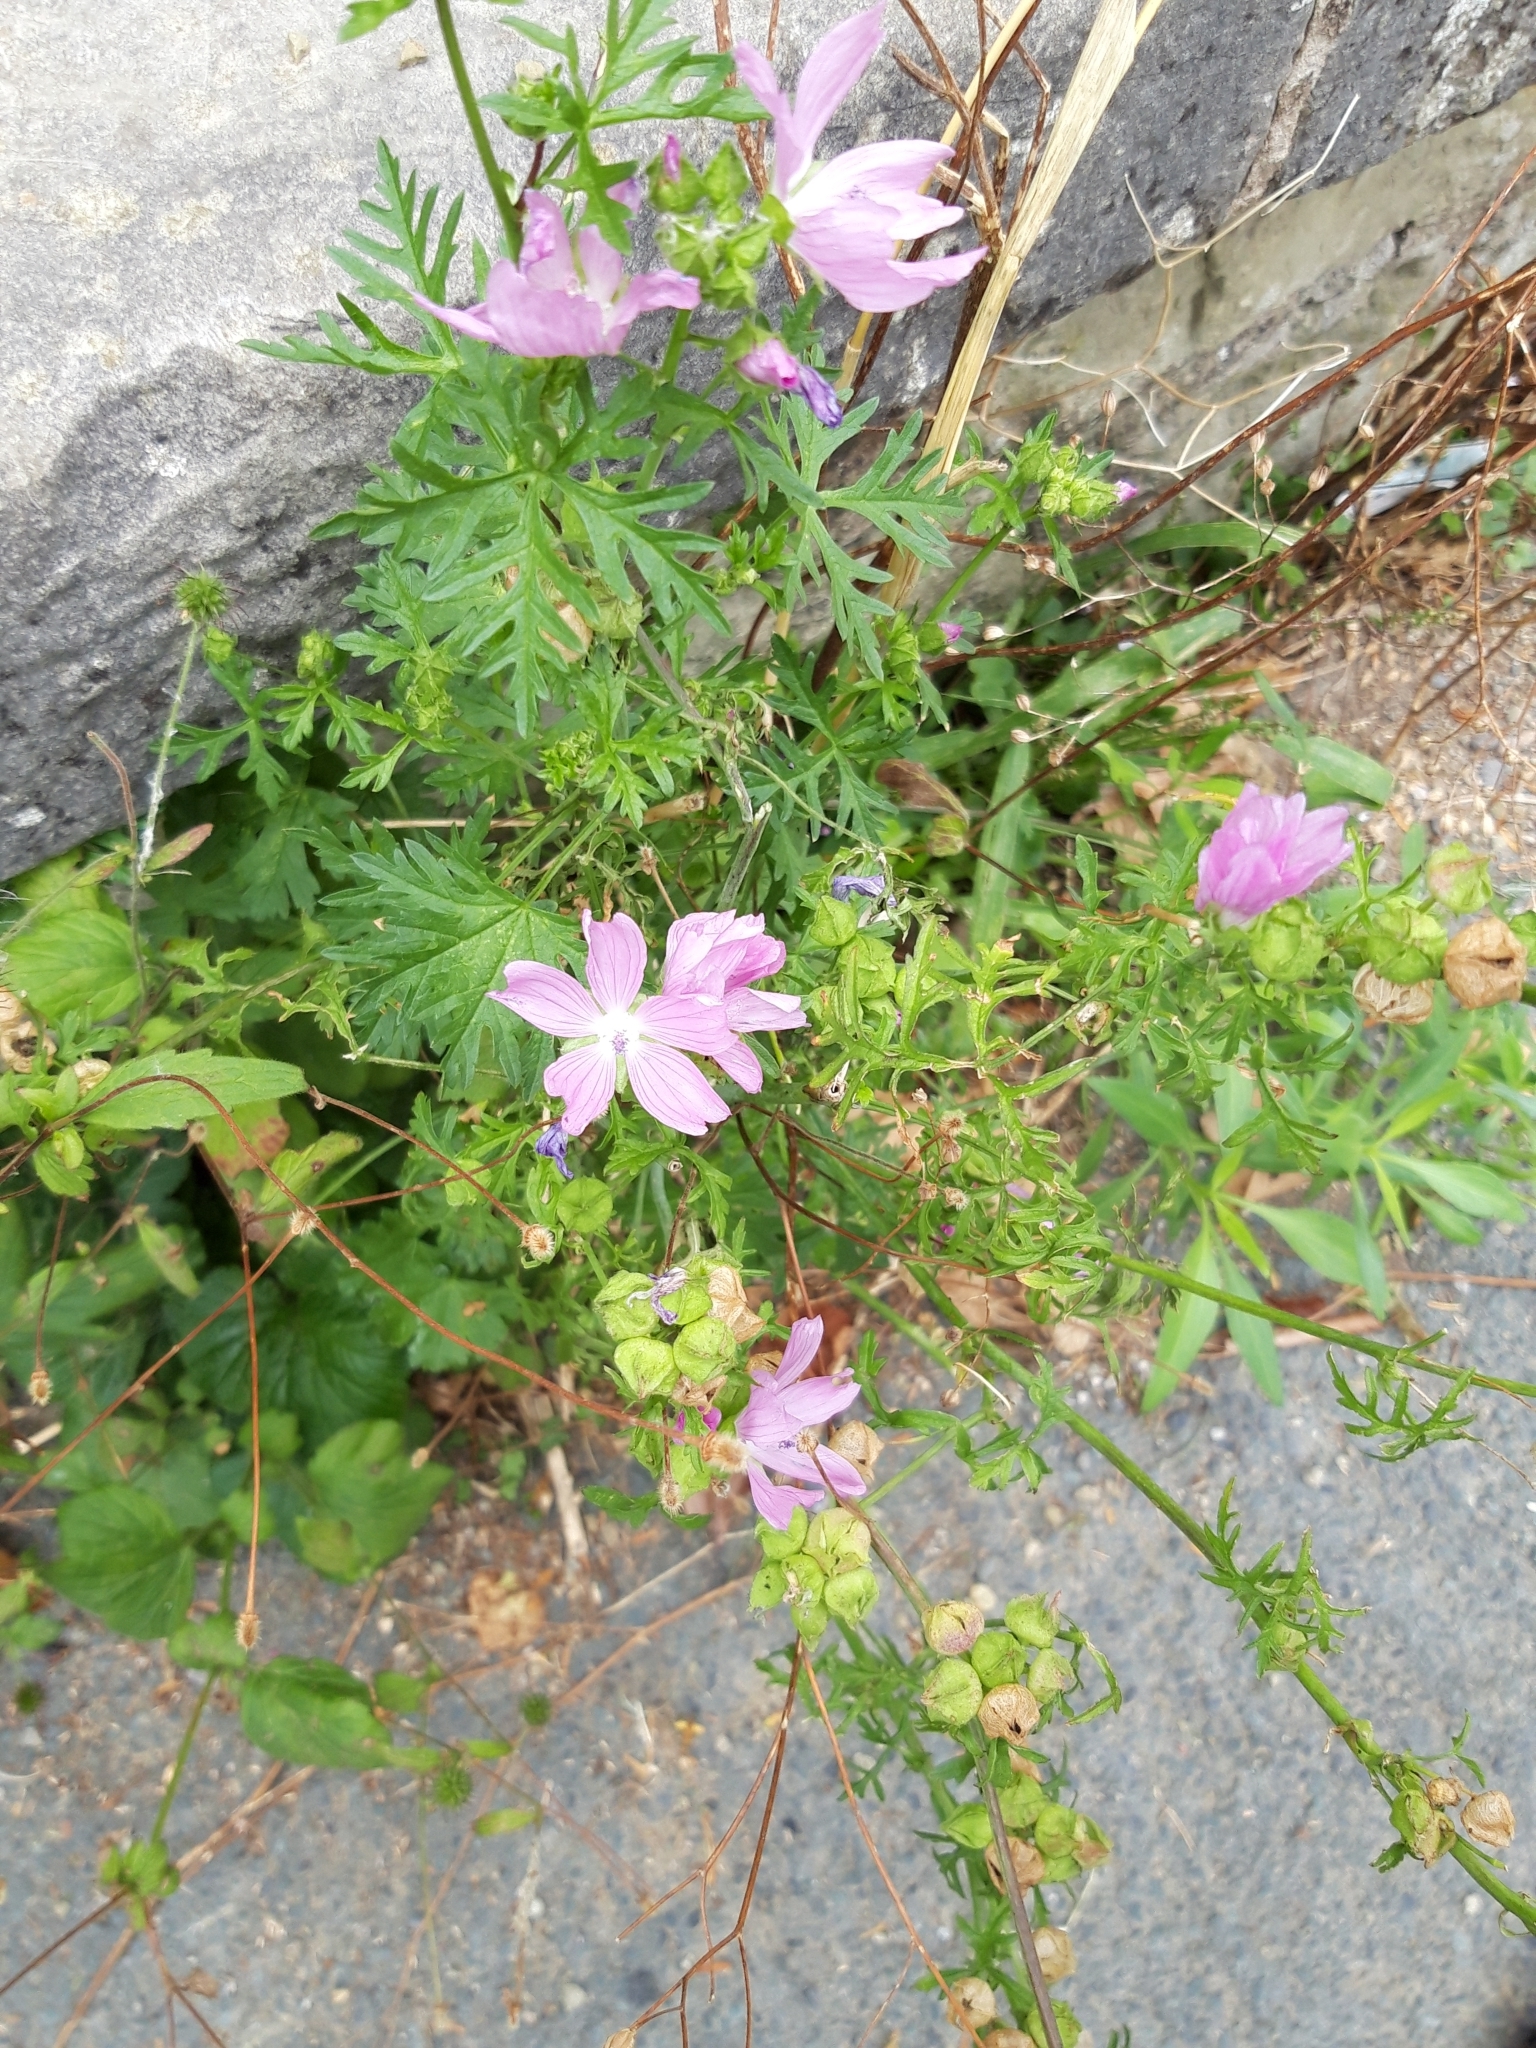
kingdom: Plantae
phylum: Tracheophyta
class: Magnoliopsida
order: Malvales
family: Malvaceae
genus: Malva
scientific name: Malva moschata
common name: Musk mallow
